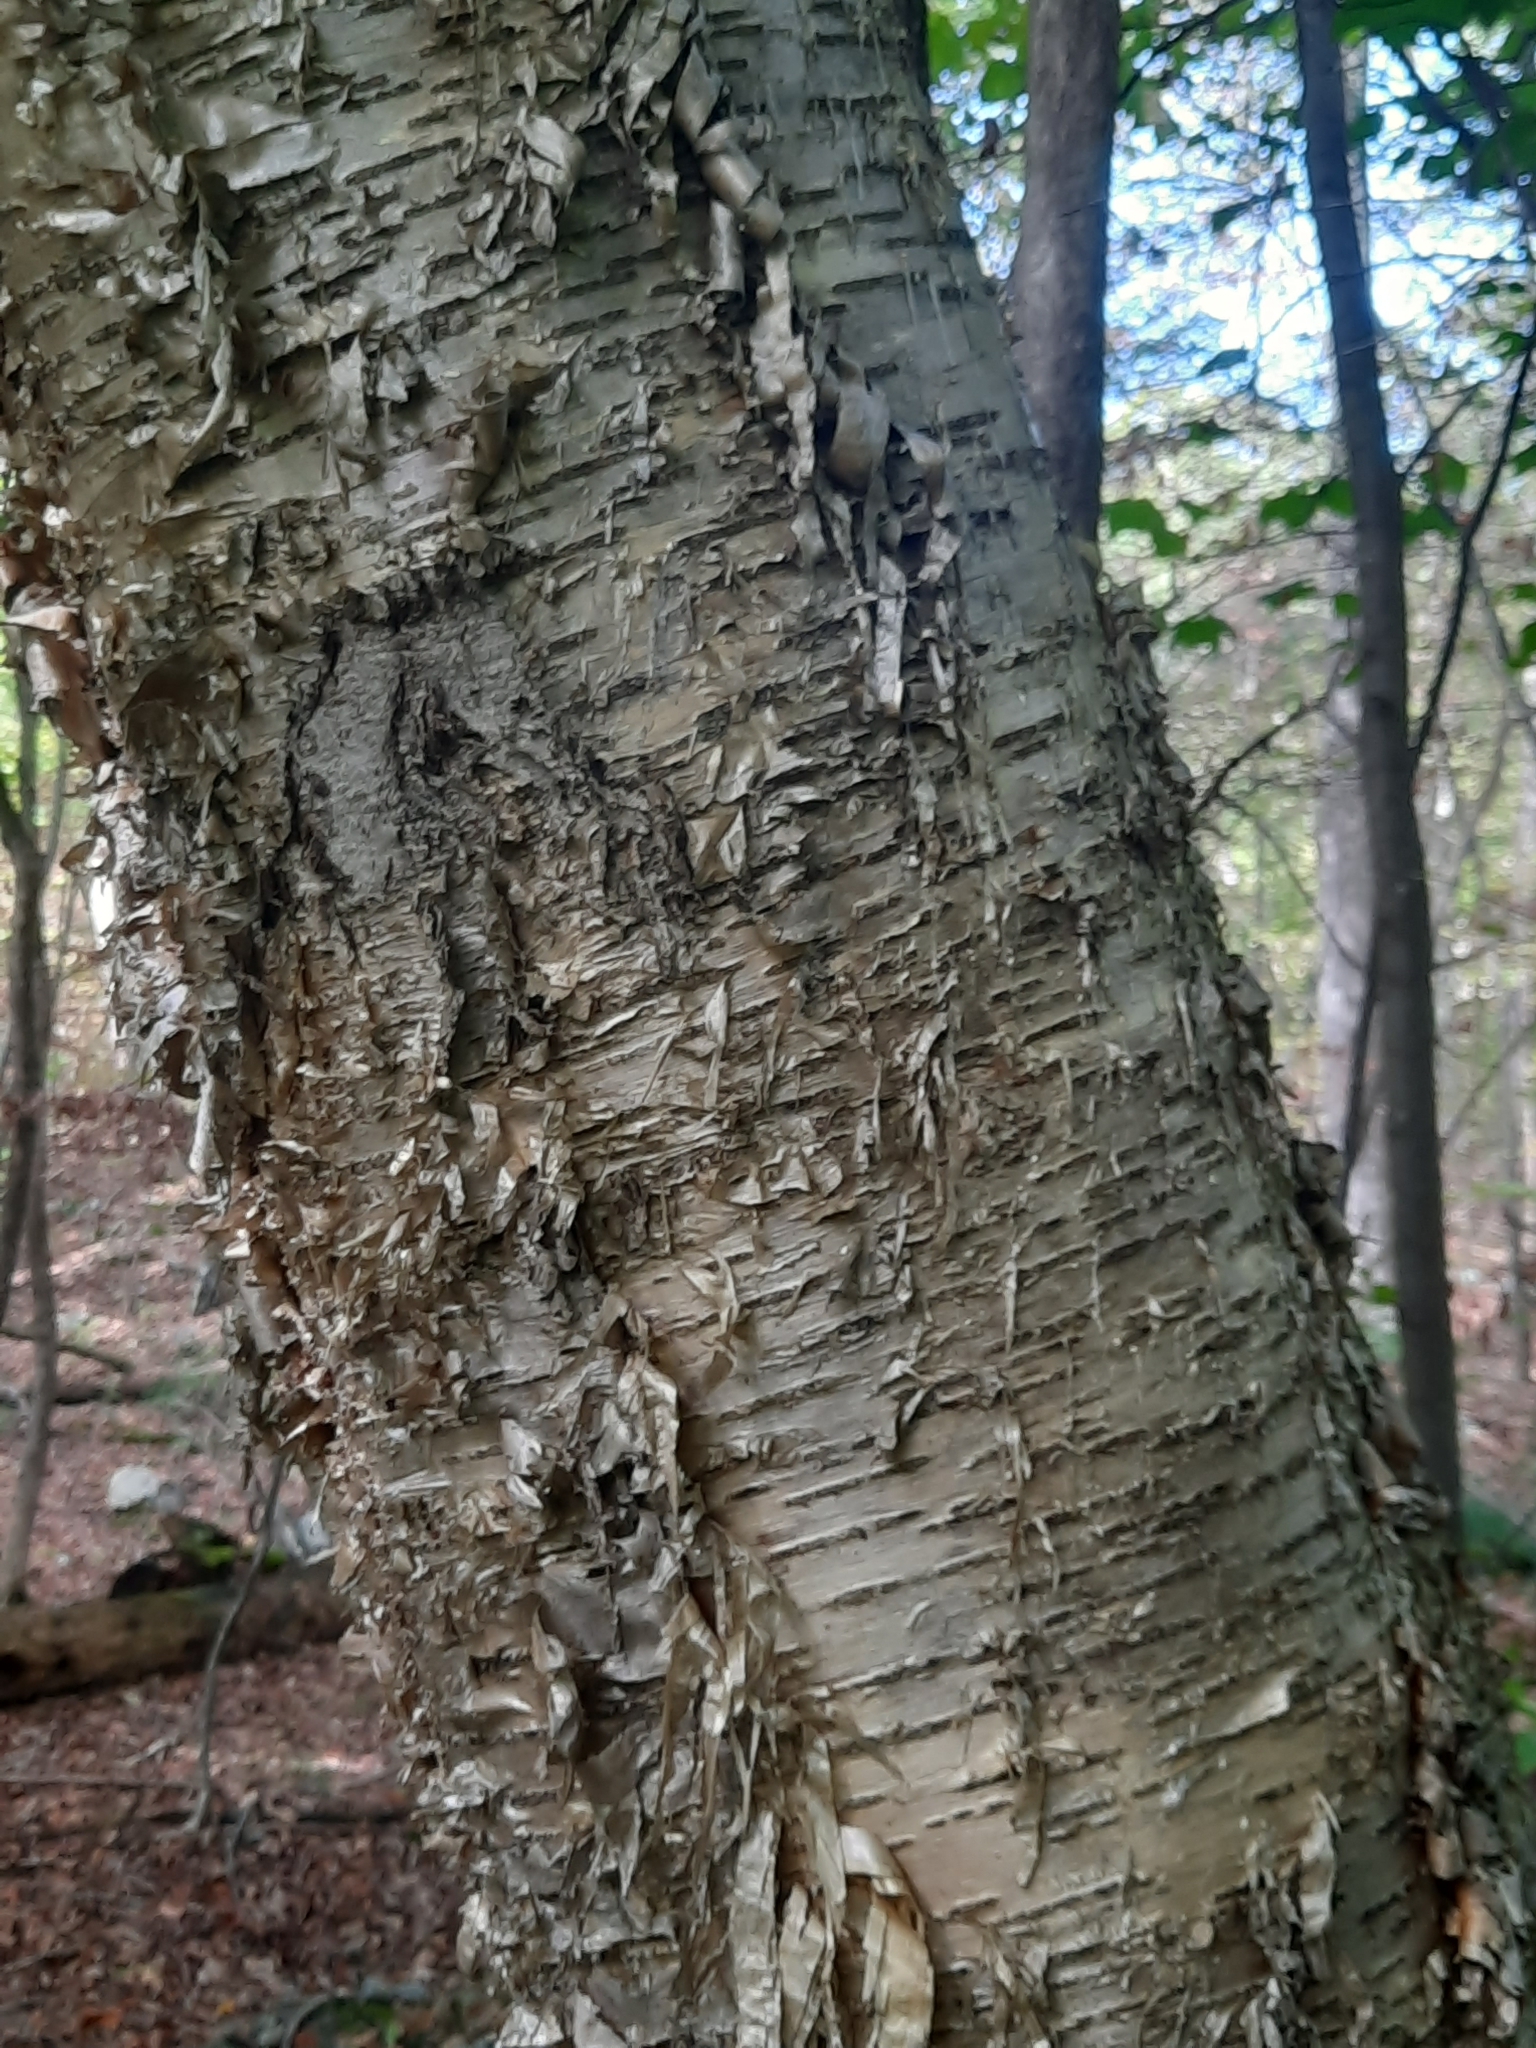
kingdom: Plantae
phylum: Tracheophyta
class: Magnoliopsida
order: Fagales
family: Betulaceae
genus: Betula
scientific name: Betula alleghaniensis
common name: Yellow birch
